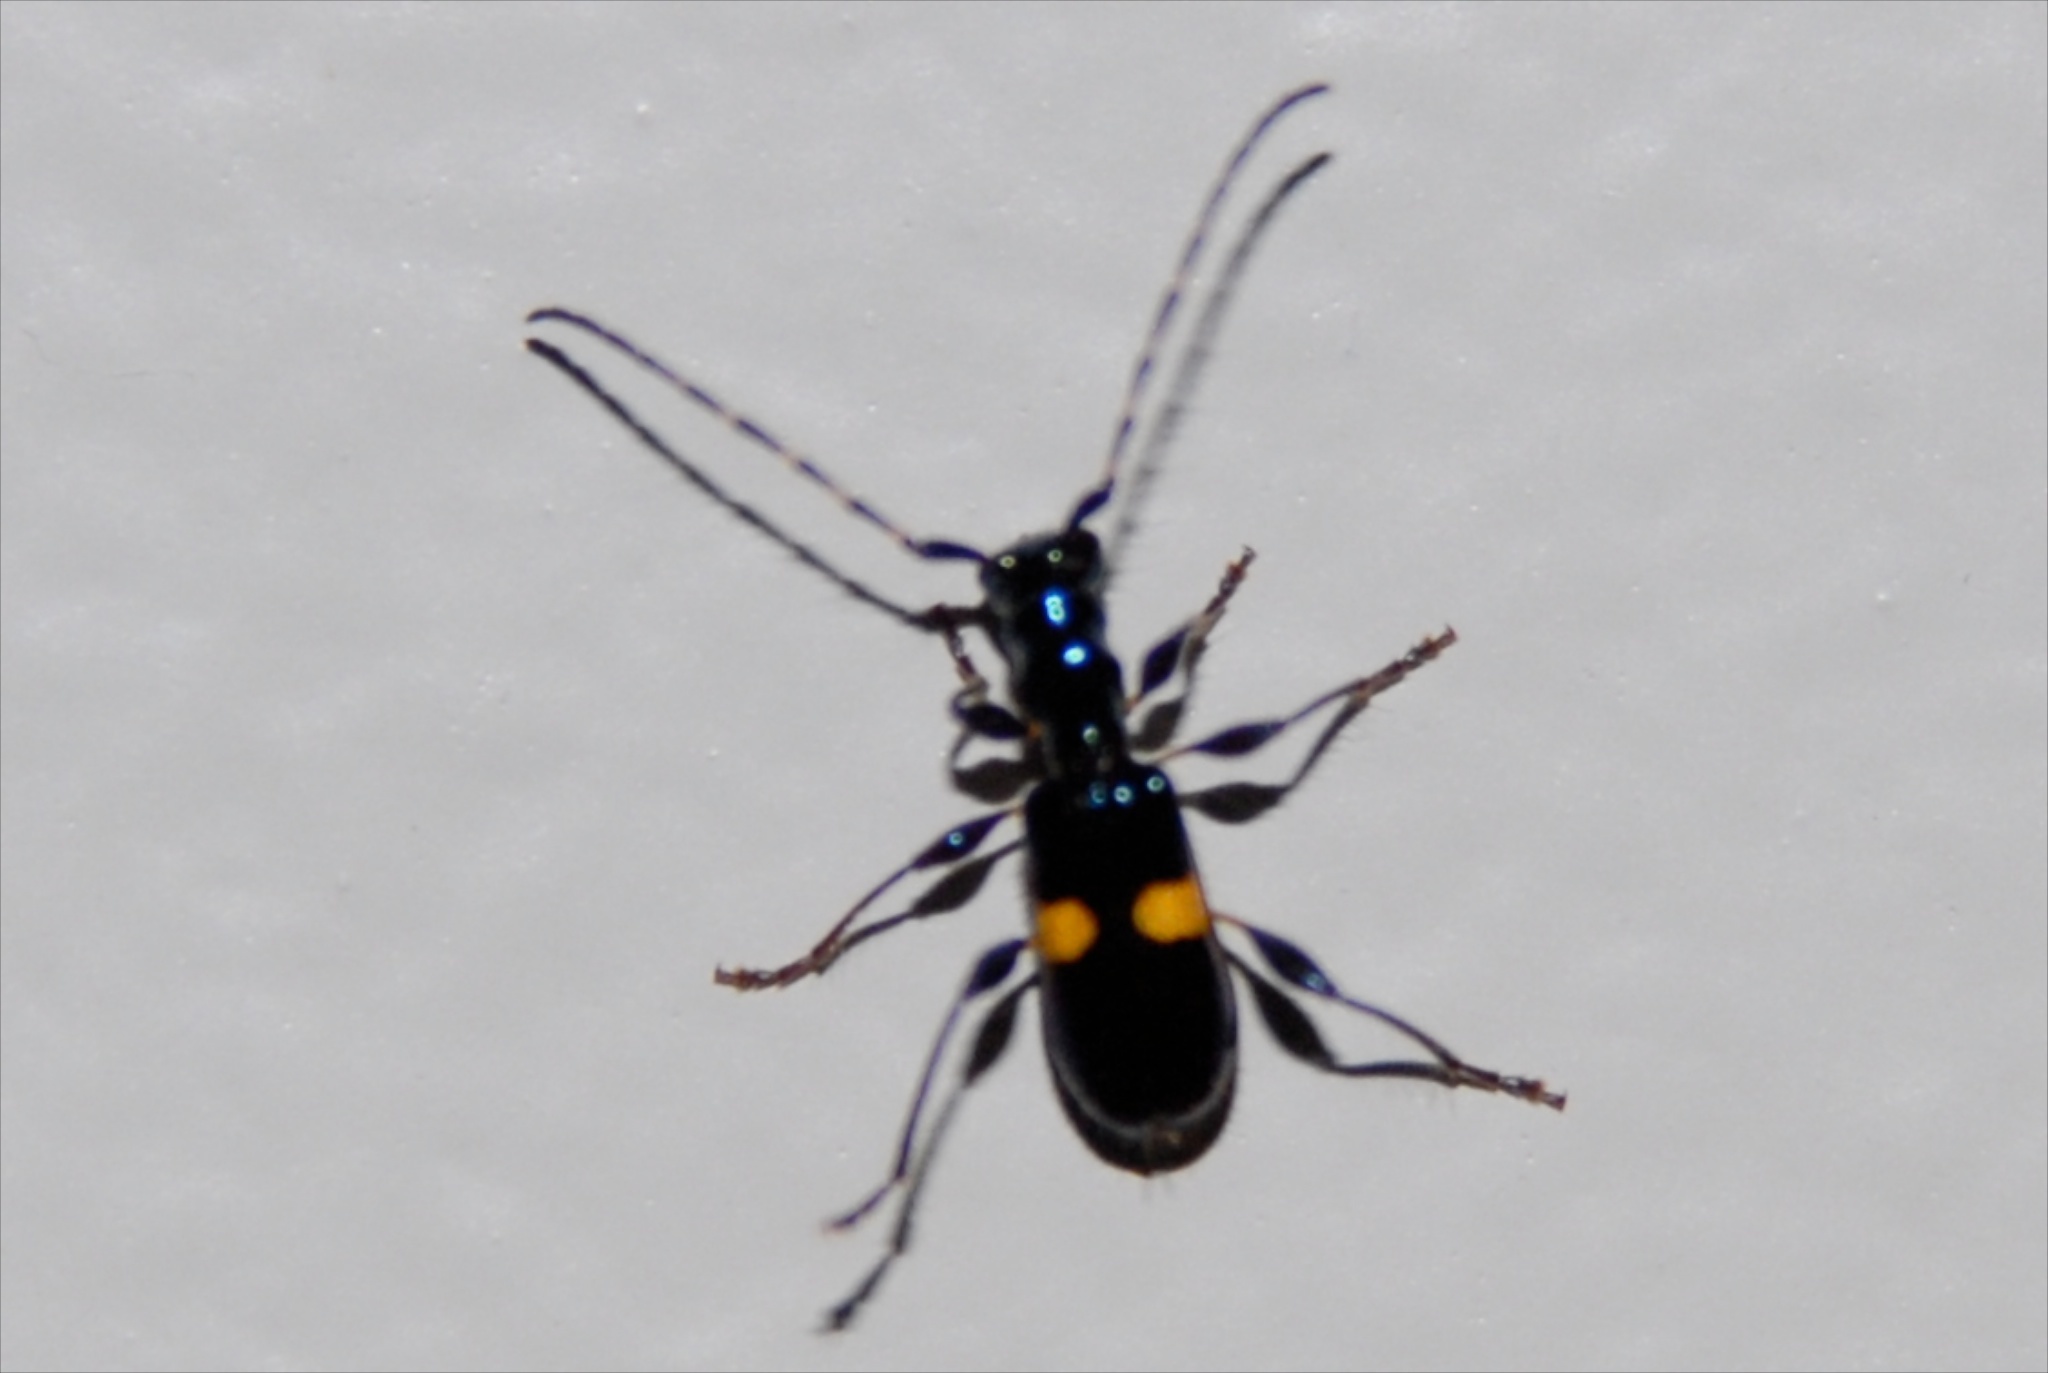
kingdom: Animalia
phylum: Arthropoda
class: Insecta
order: Coleoptera
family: Cerambycidae
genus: Zorion
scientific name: Zorion guttigerum
